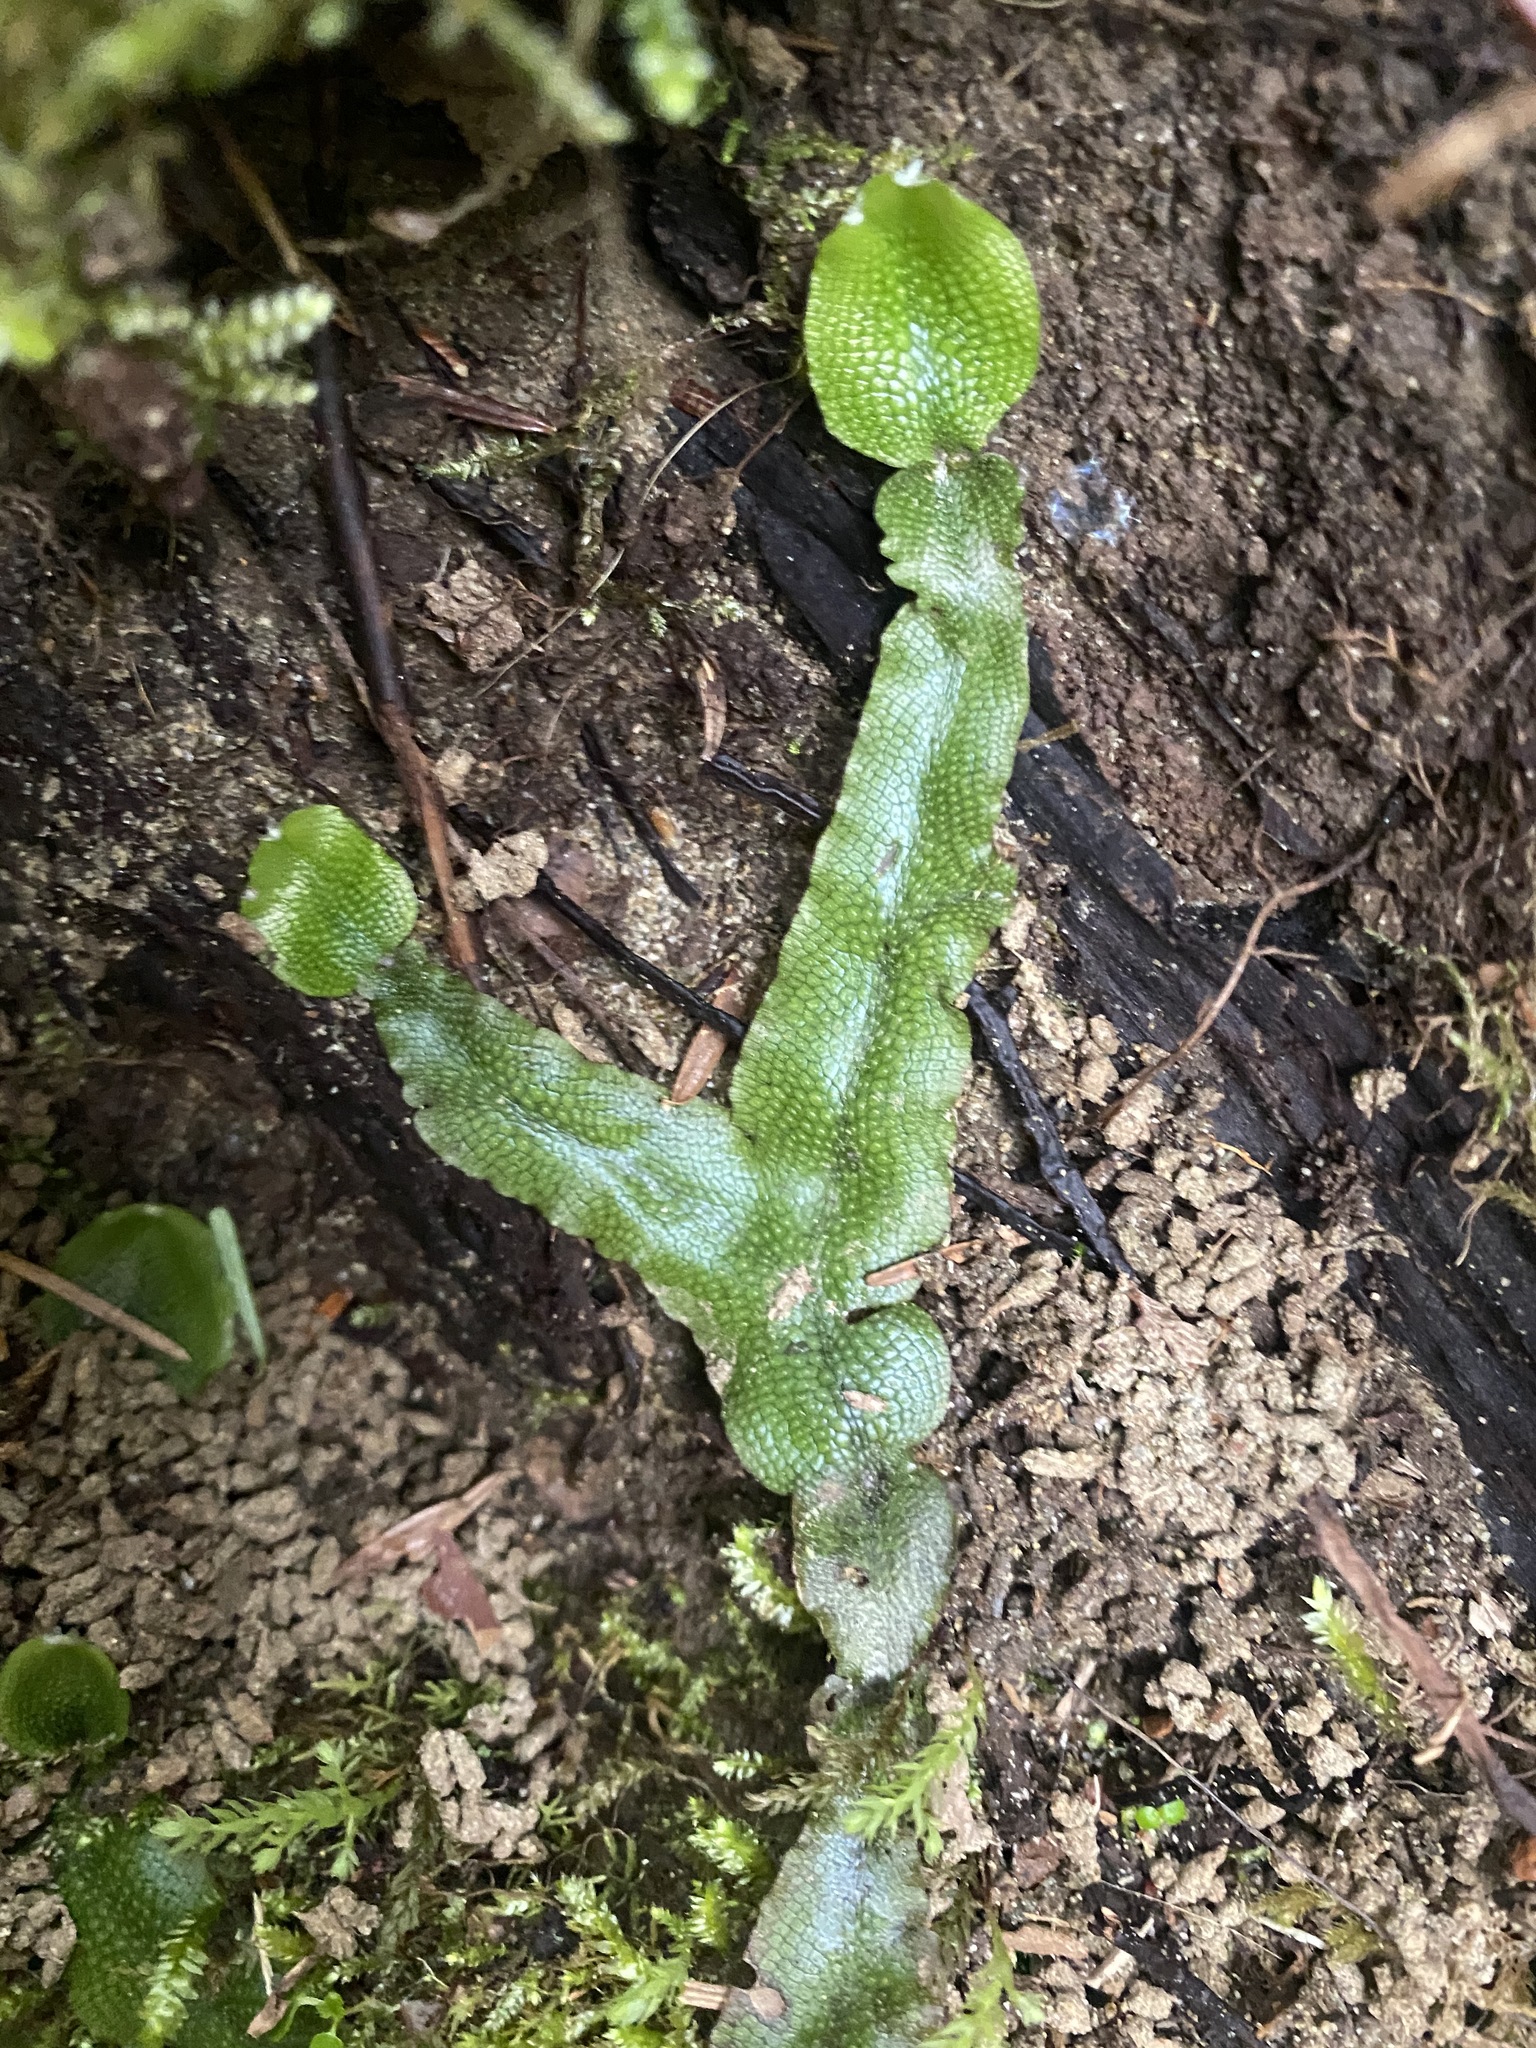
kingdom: Plantae
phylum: Marchantiophyta
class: Marchantiopsida
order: Marchantiales
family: Conocephalaceae
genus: Conocephalum
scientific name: Conocephalum salebrosum
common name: Cat-tongue liverwort
